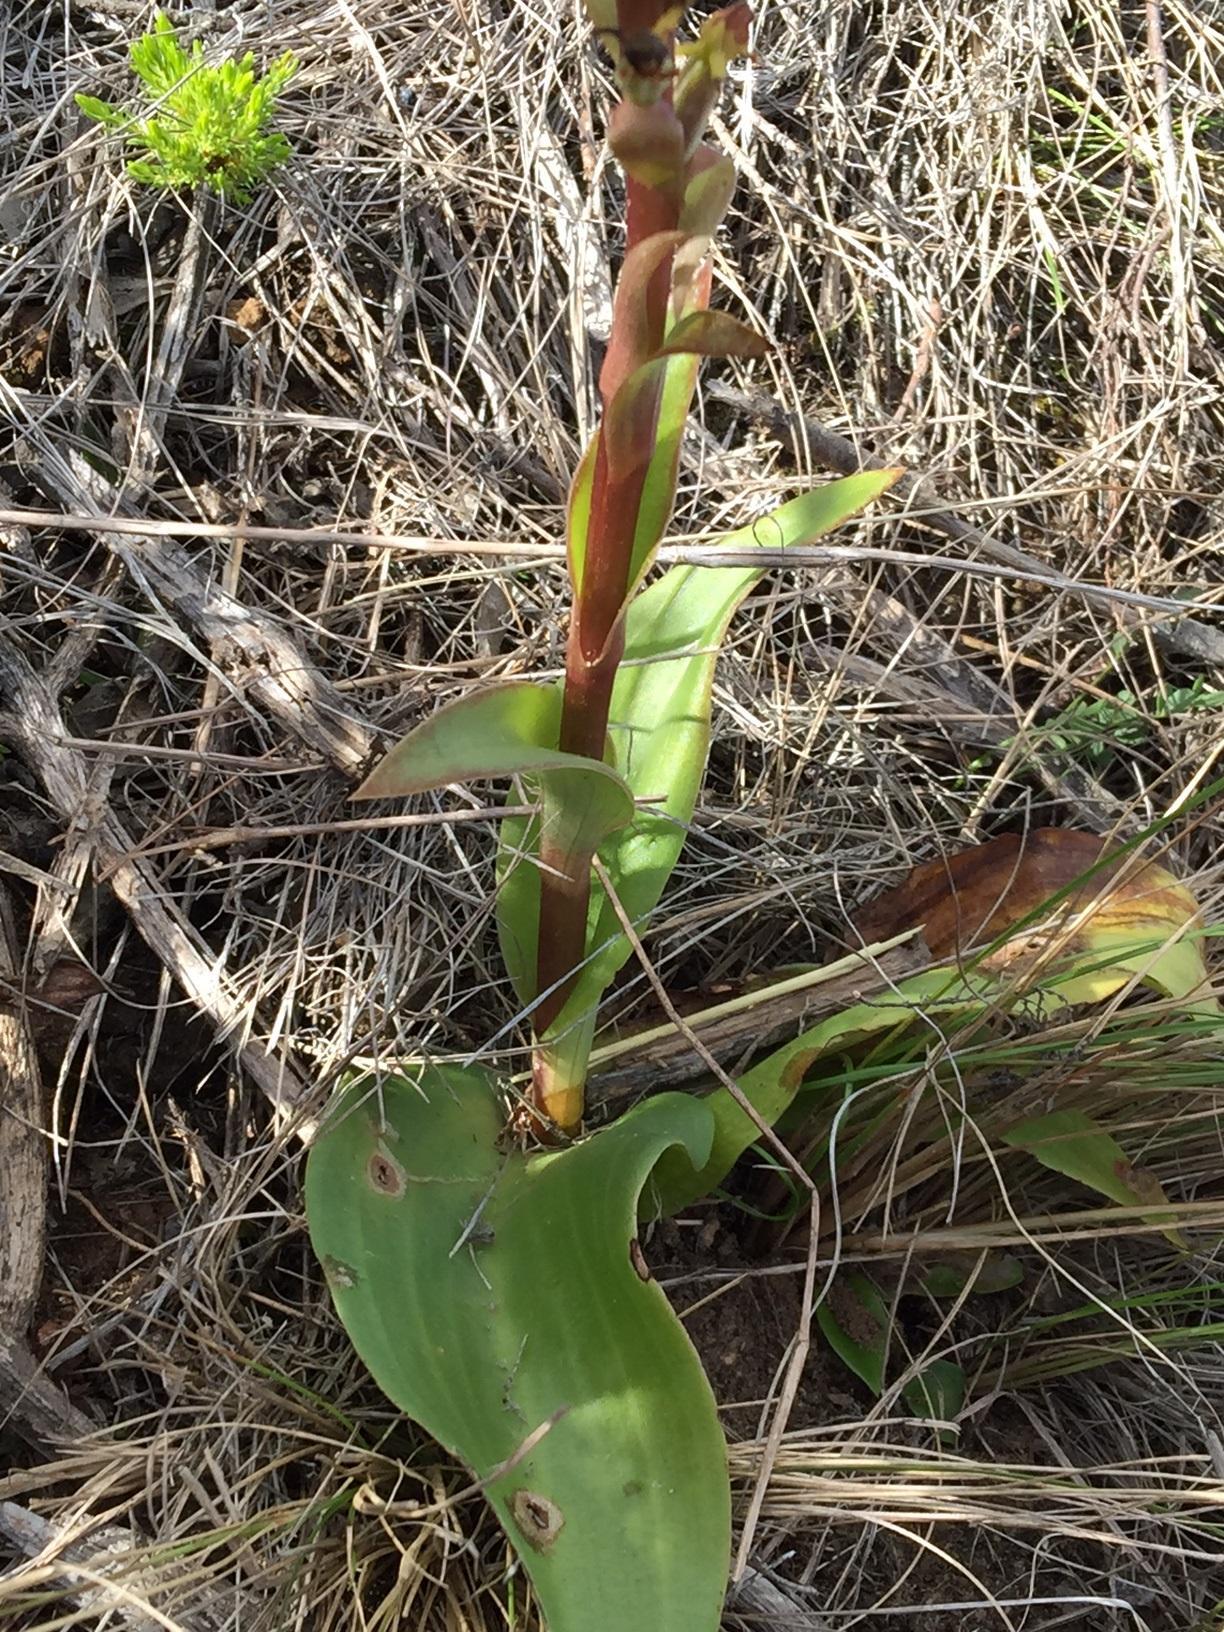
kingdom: Plantae
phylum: Tracheophyta
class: Liliopsida
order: Asparagales
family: Orchidaceae
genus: Satyrium
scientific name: Satyrium parviflorum
